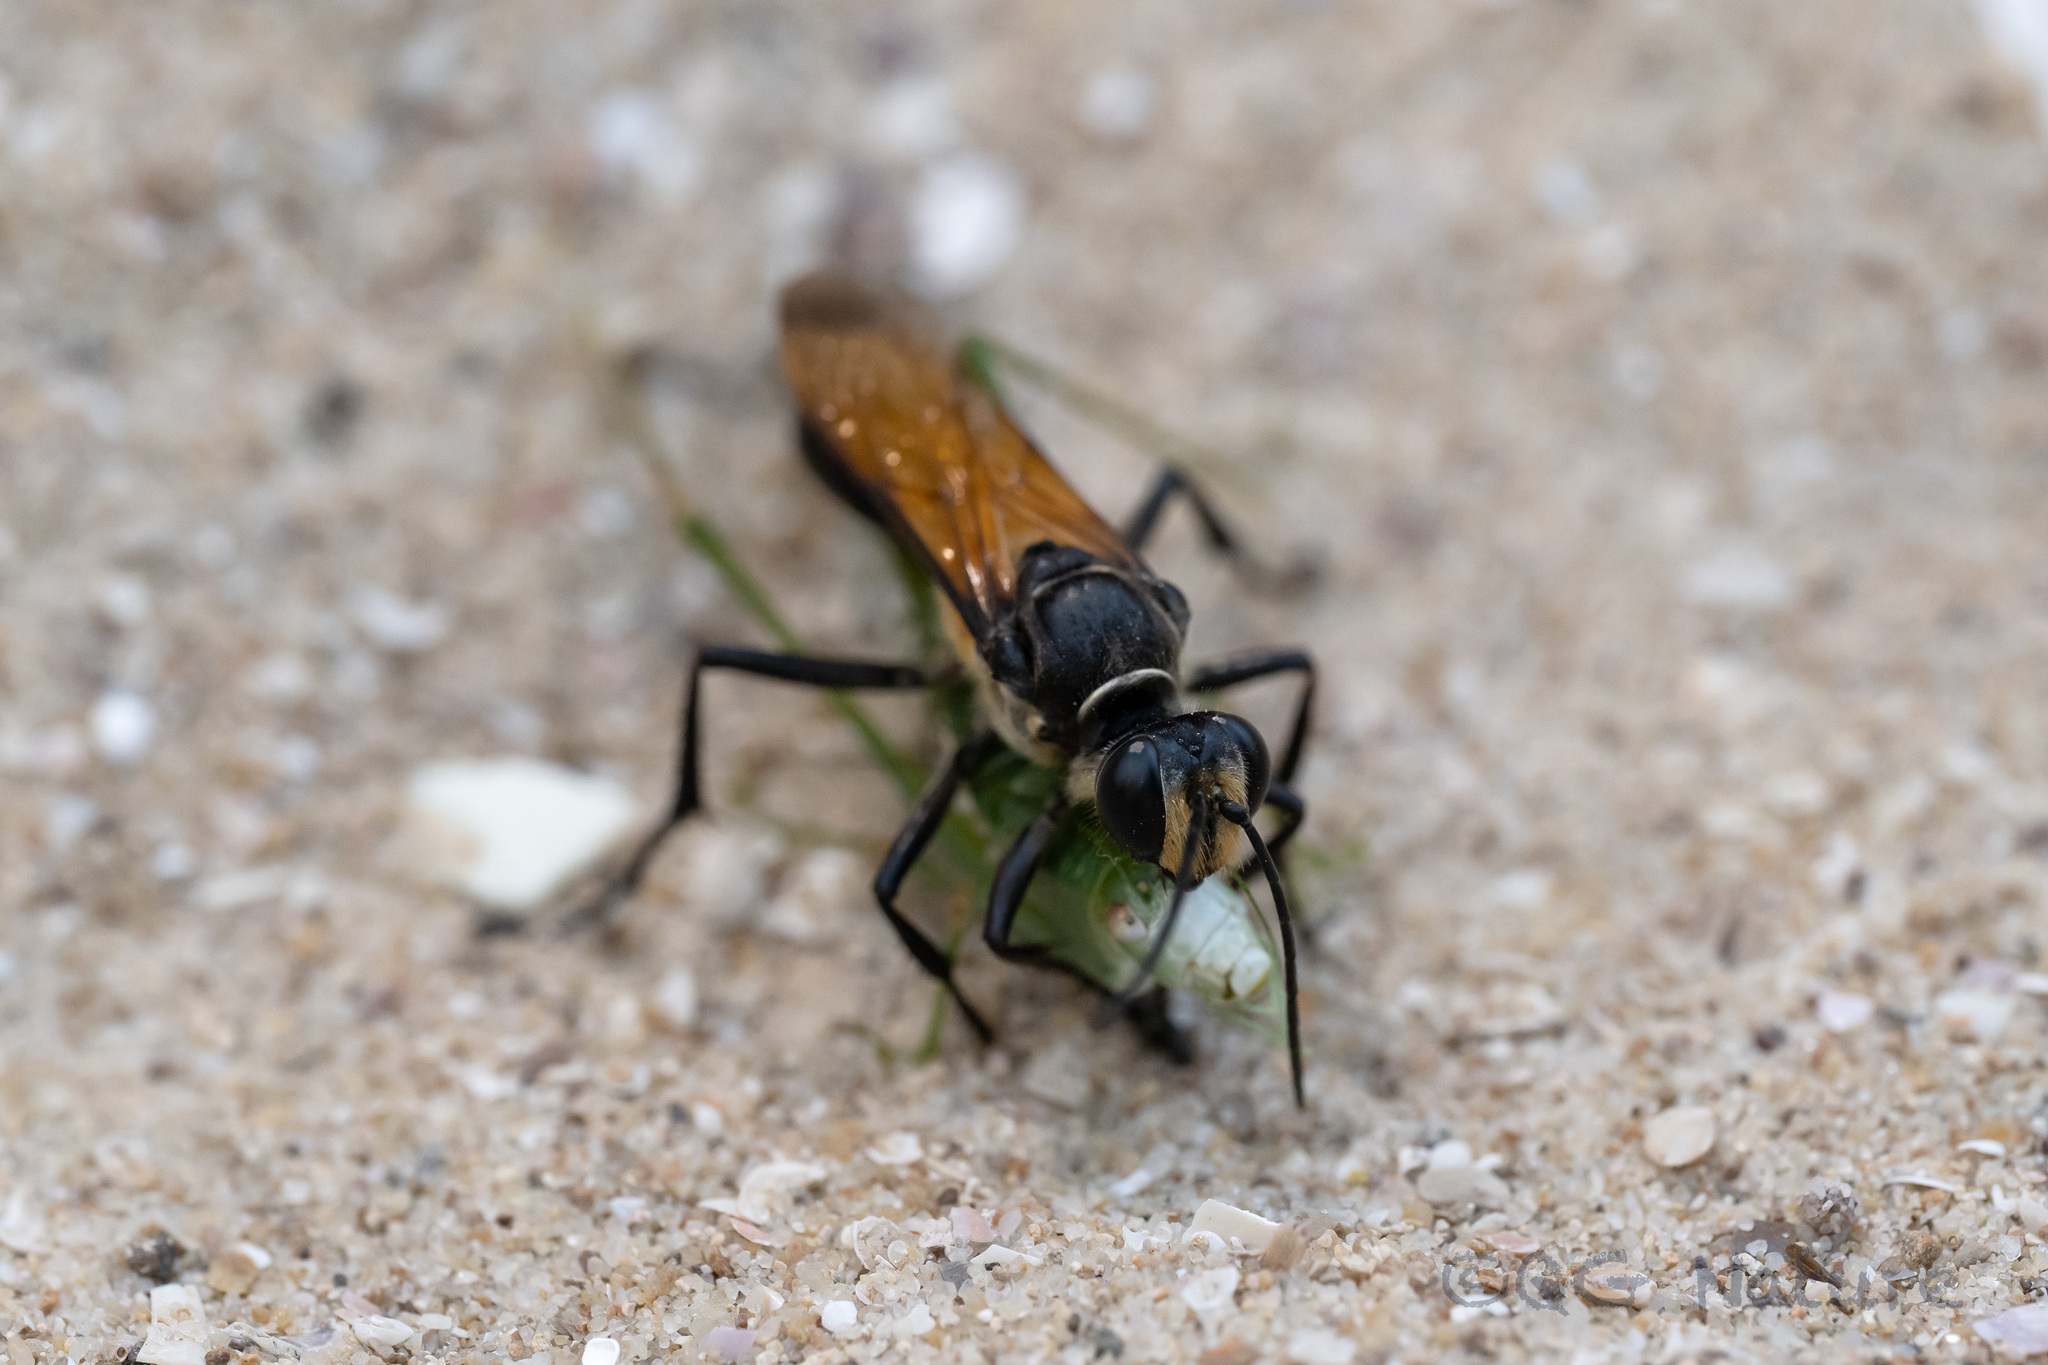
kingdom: Animalia
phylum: Arthropoda
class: Insecta
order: Hymenoptera
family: Sphecidae
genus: Sphex
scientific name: Sphex diabolicus
